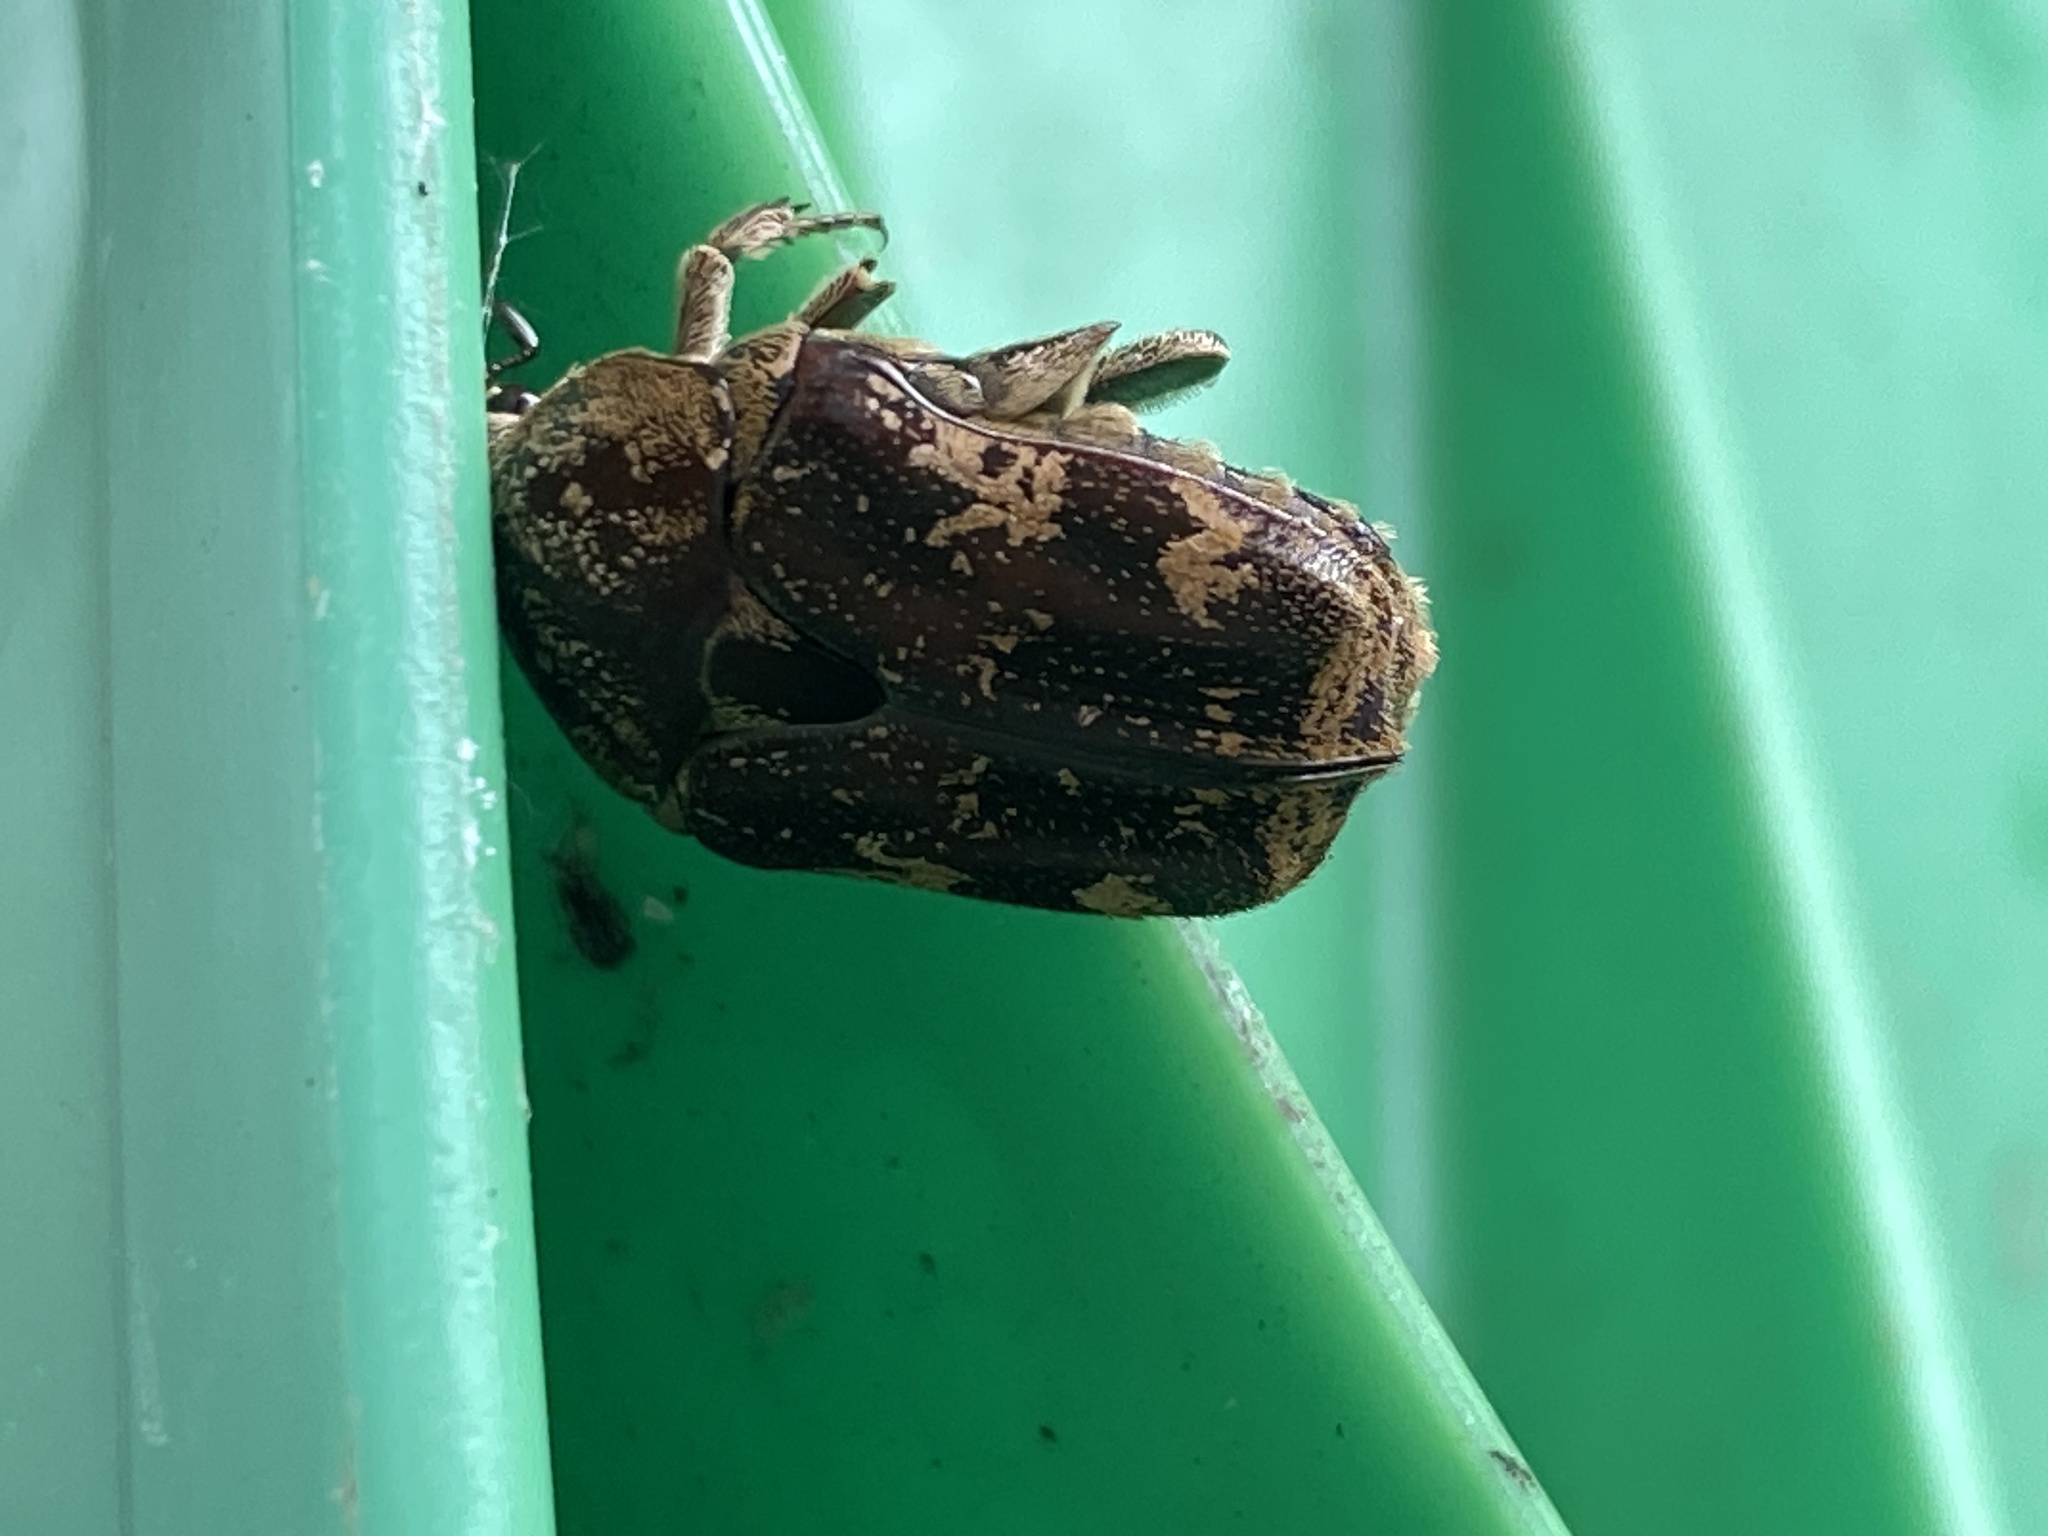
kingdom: Animalia
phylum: Arthropoda
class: Insecta
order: Coleoptera
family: Scarabaeidae
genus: Protaetia
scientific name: Protaetia fusca
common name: Mango flower beetle
